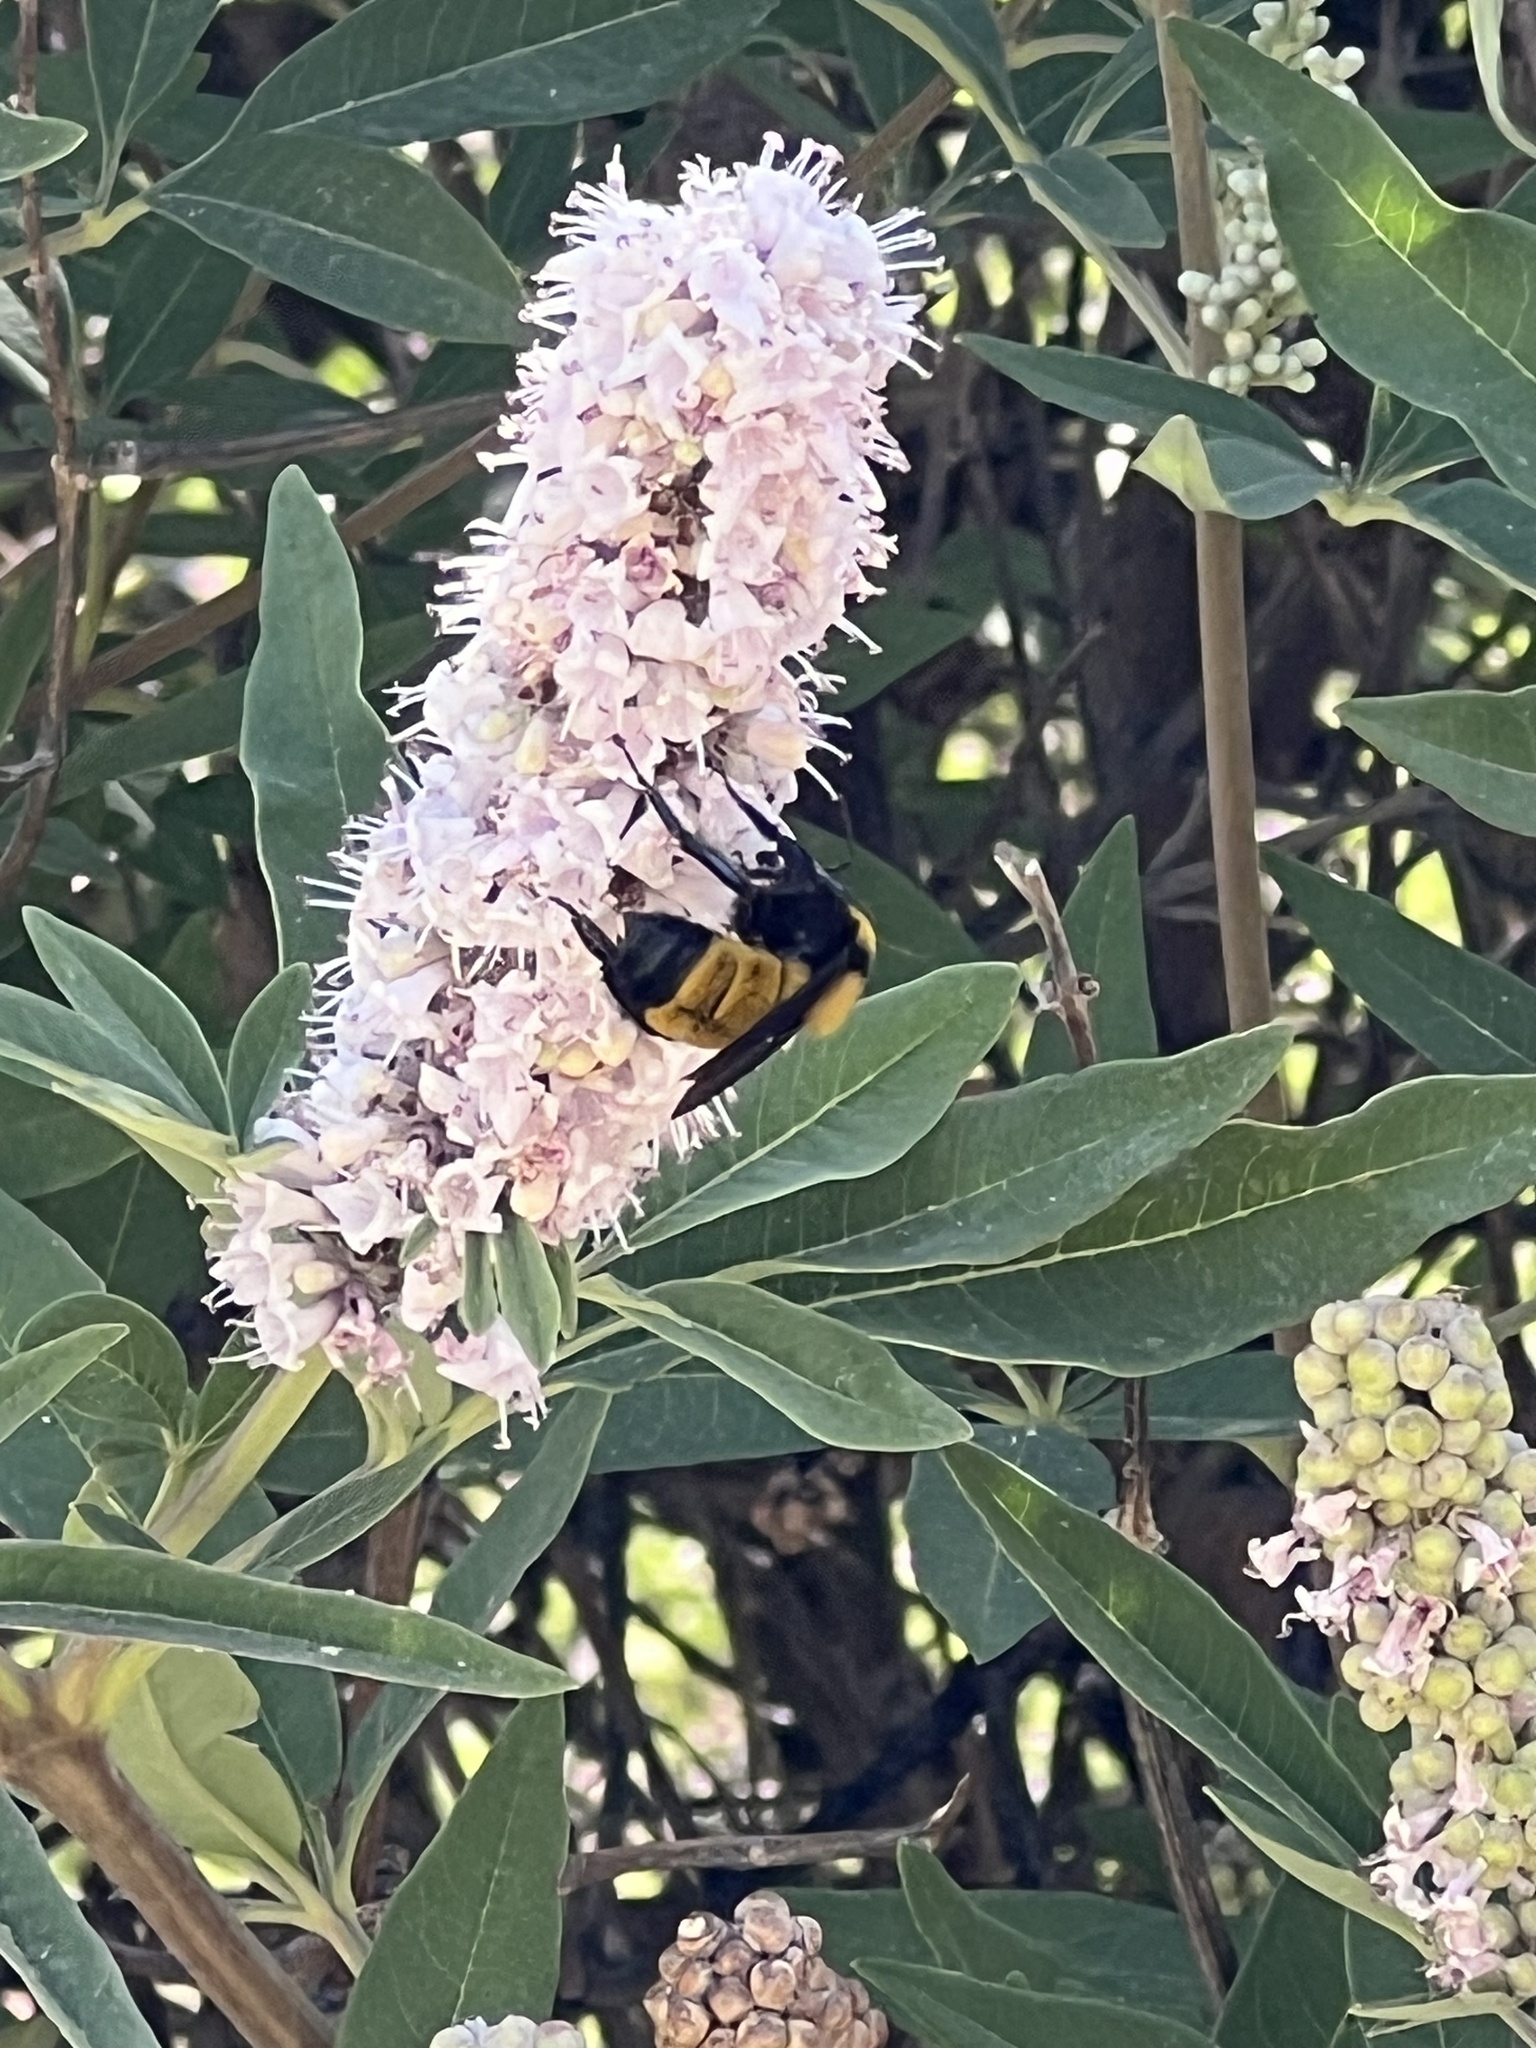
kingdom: Animalia
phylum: Arthropoda
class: Insecta
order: Hymenoptera
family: Apidae
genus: Bombus
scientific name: Bombus sonorus
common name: Sonoran bumble bee
